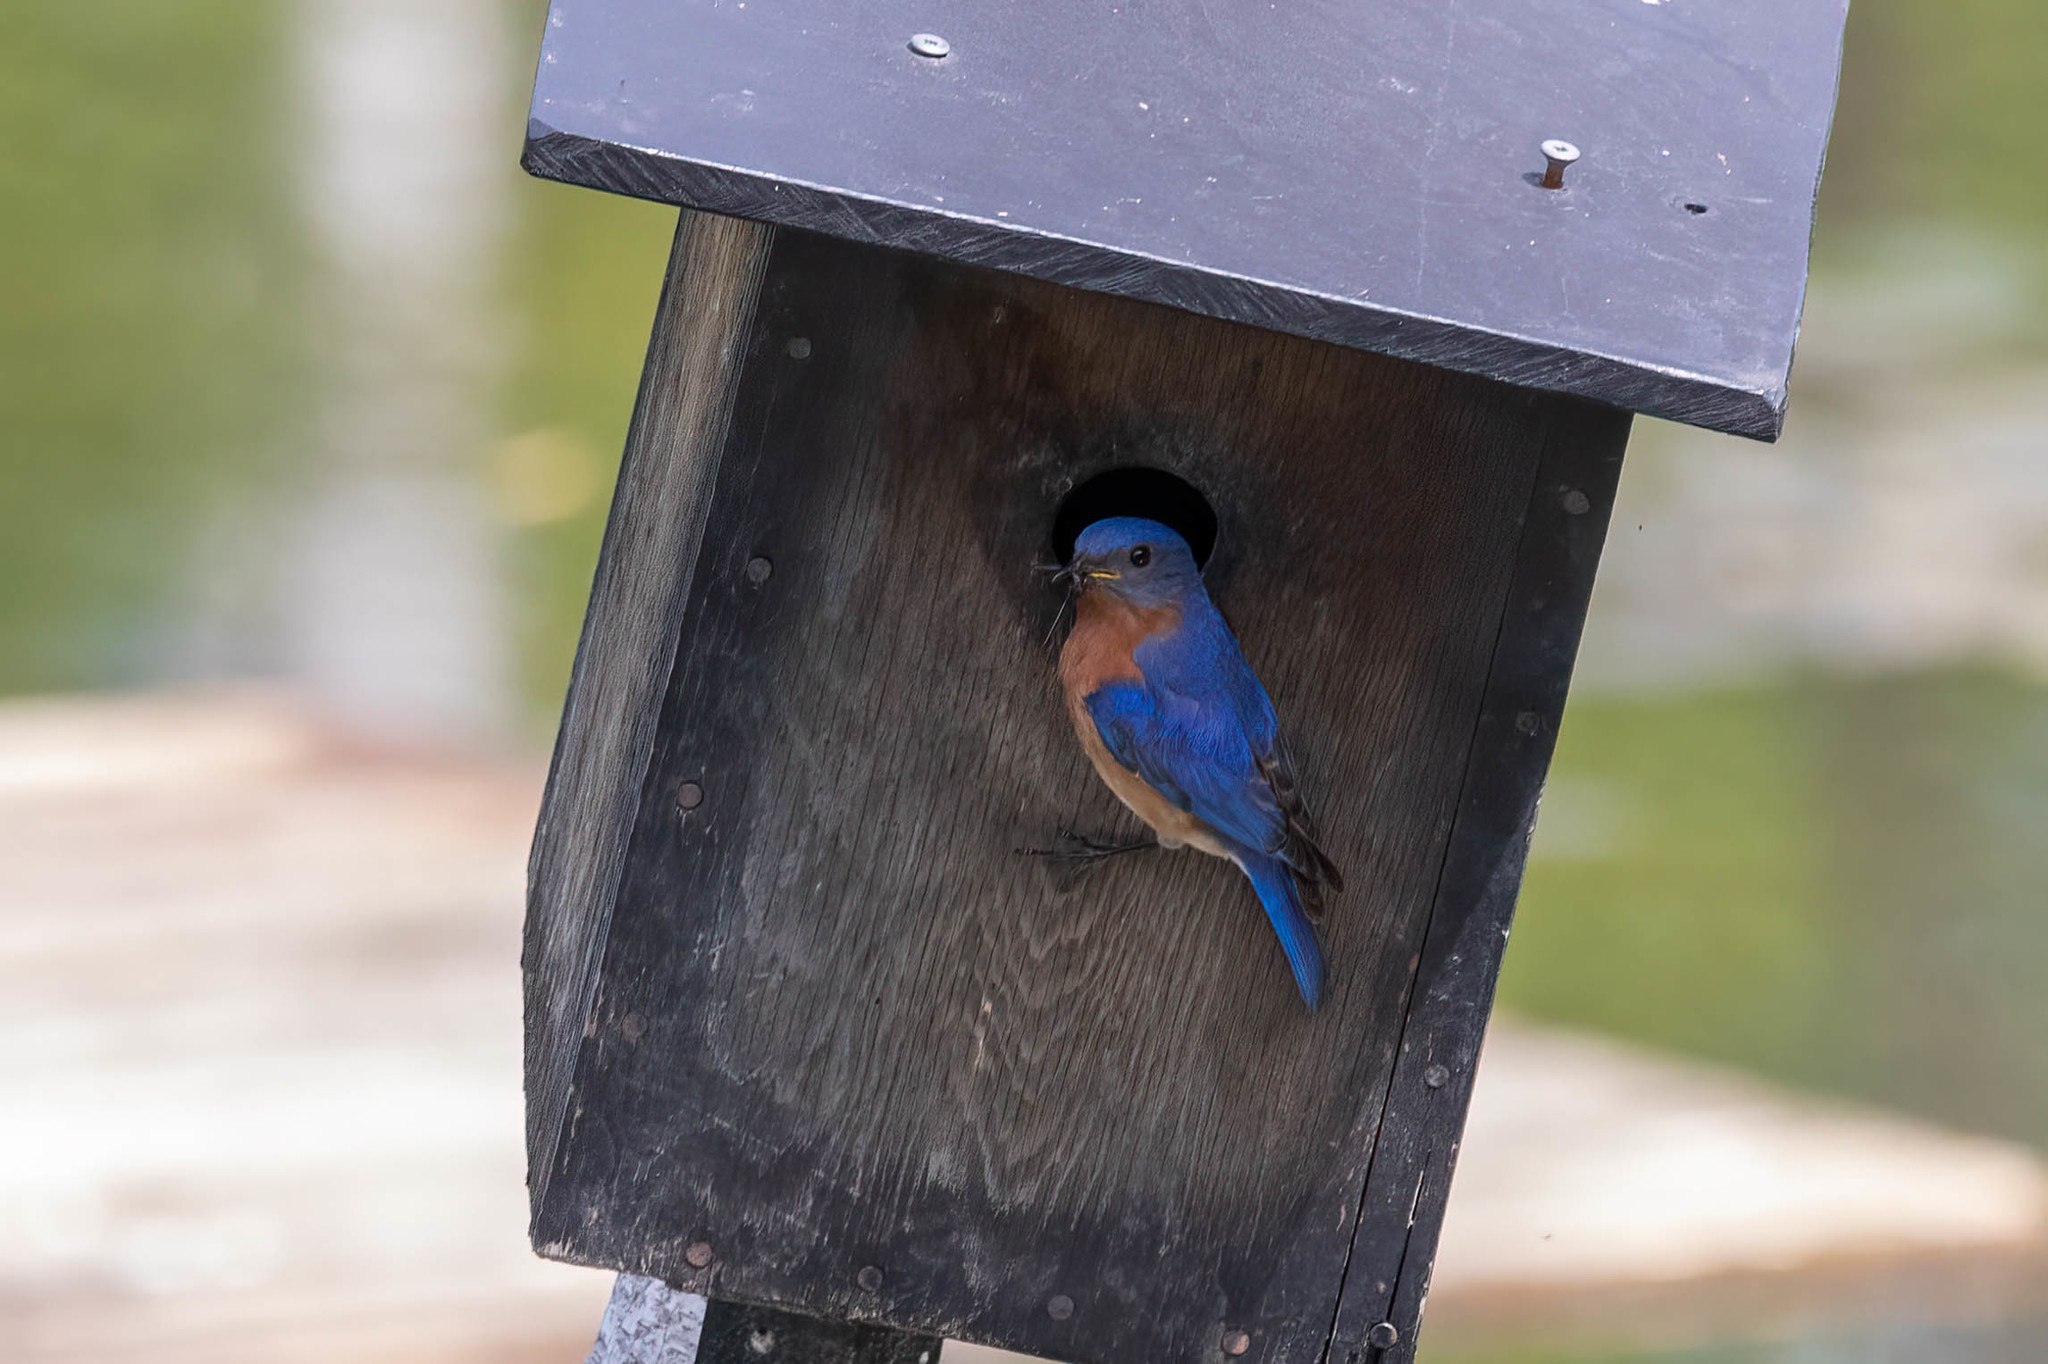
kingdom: Animalia
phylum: Chordata
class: Aves
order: Passeriformes
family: Turdidae
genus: Sialia
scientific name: Sialia sialis
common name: Eastern bluebird
